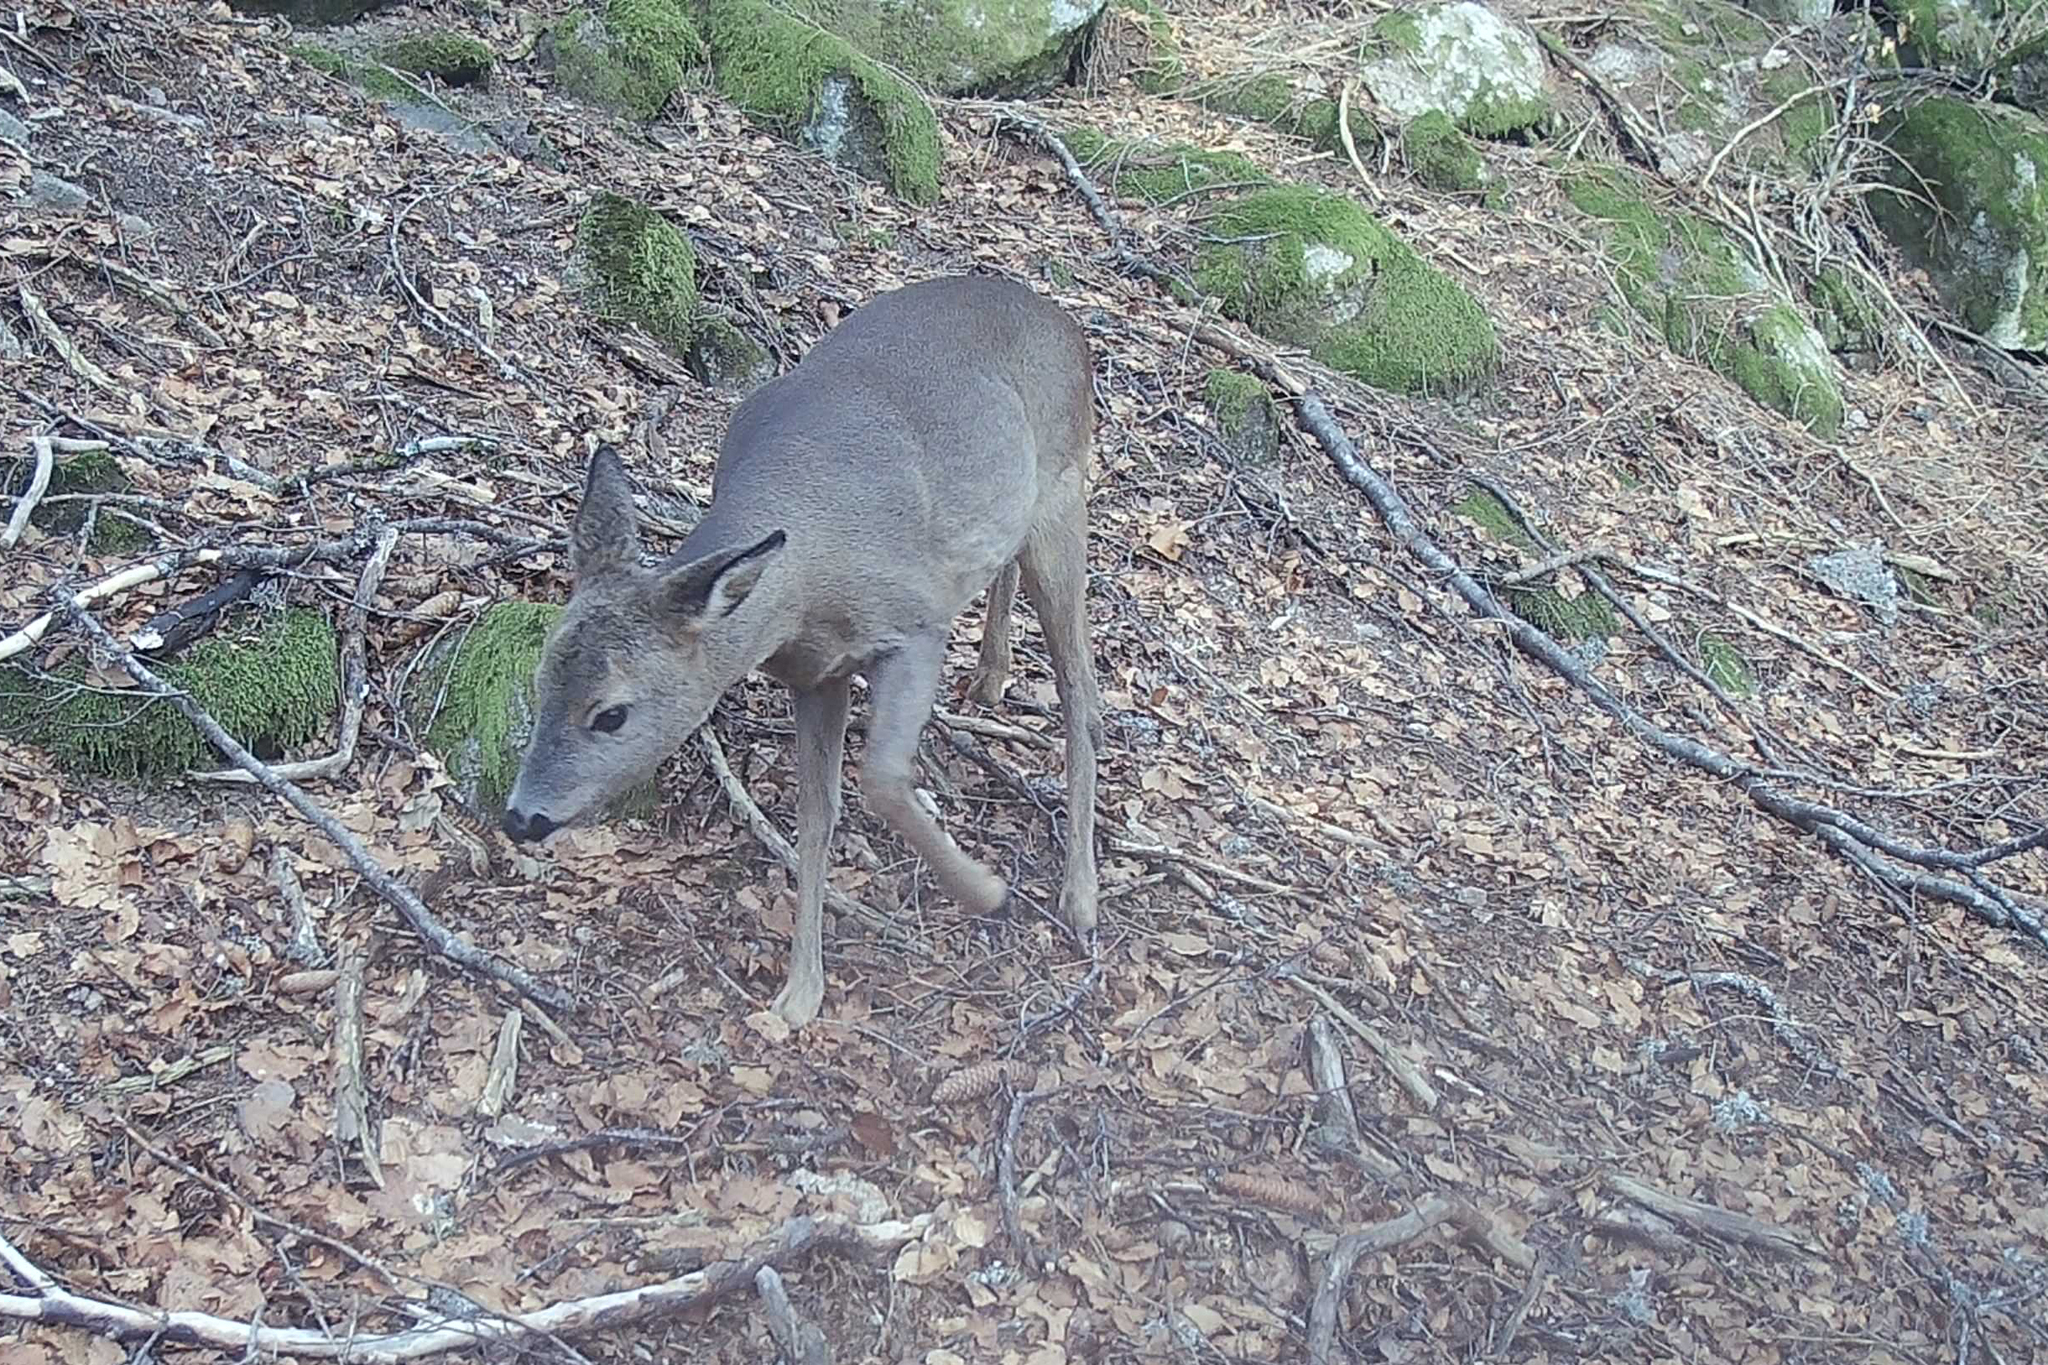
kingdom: Animalia
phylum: Chordata
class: Mammalia
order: Artiodactyla
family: Cervidae
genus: Capreolus
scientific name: Capreolus capreolus
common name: Western roe deer
